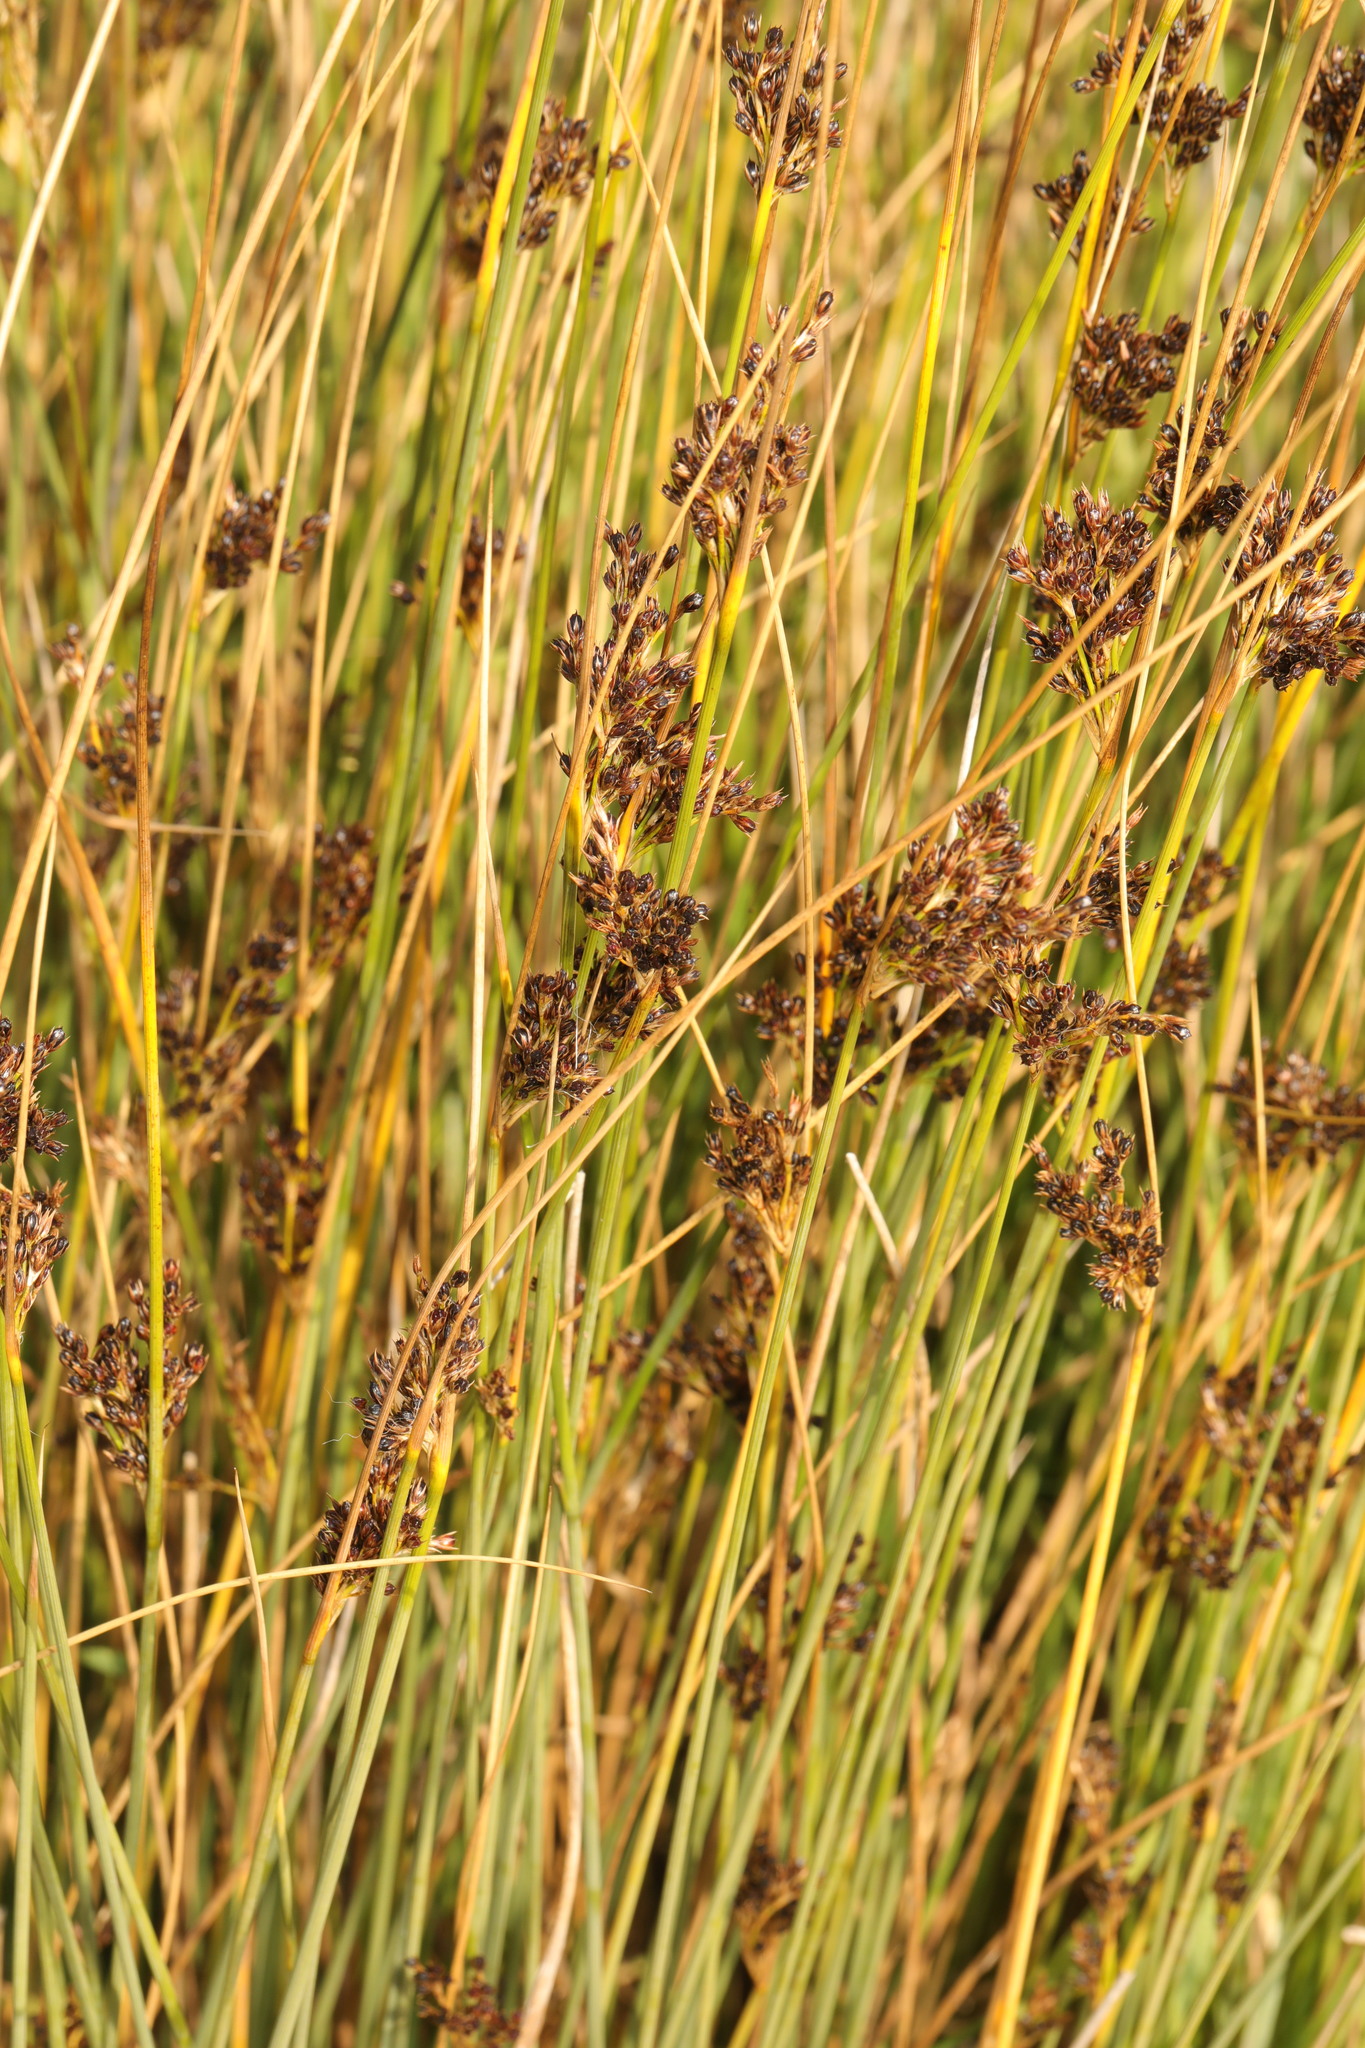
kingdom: Plantae
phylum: Tracheophyta
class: Liliopsida
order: Poales
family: Juncaceae
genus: Juncus
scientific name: Juncus inflexus
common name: Hard rush
